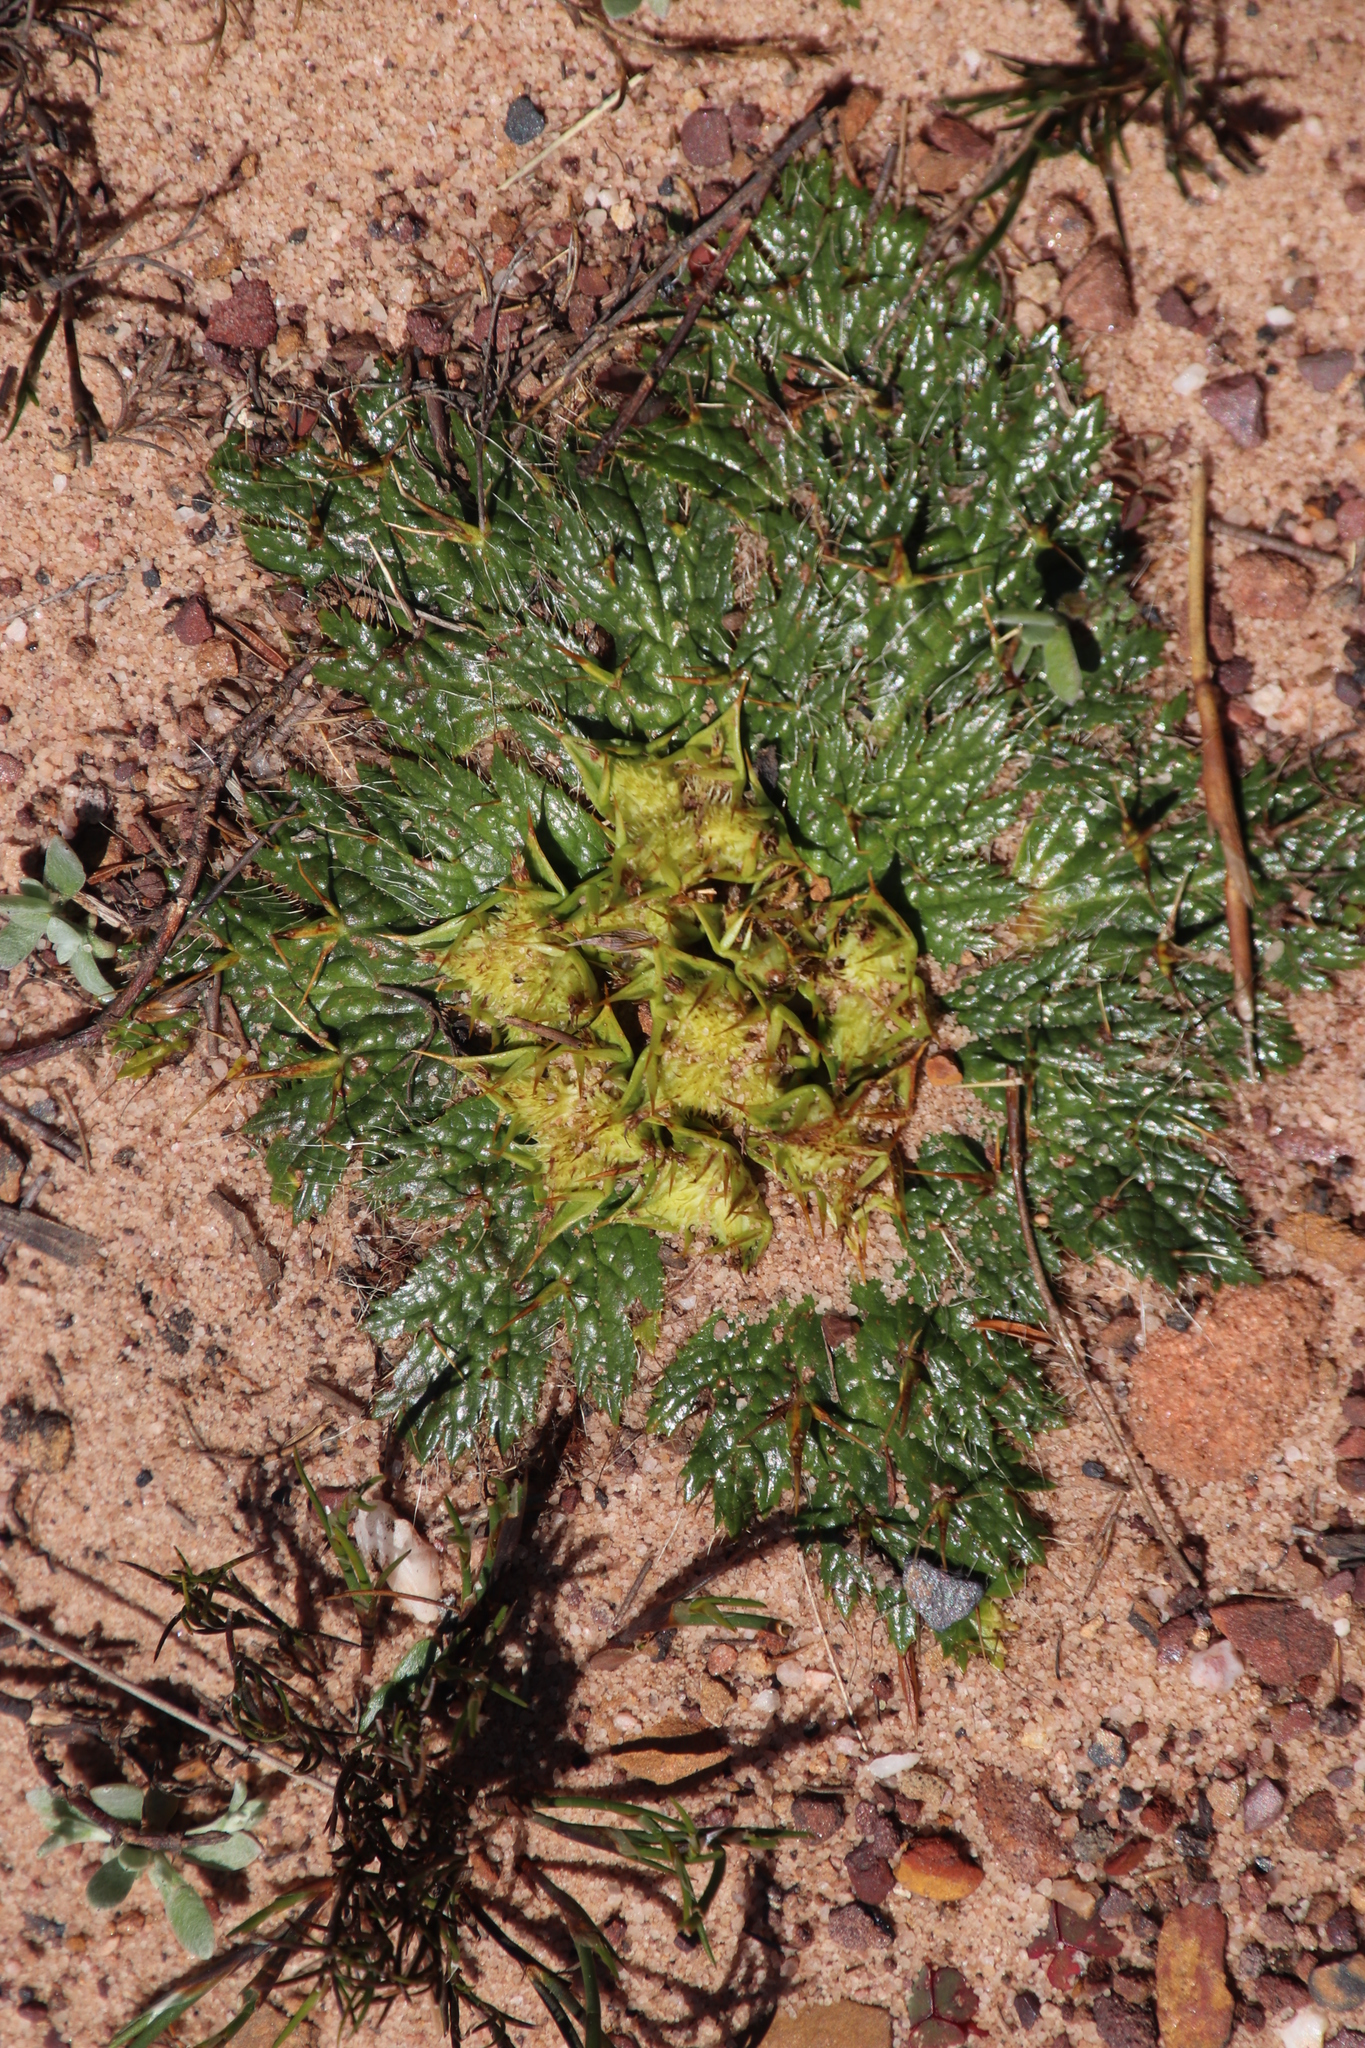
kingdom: Plantae
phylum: Tracheophyta
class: Magnoliopsida
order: Apiales
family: Apiaceae
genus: Arctopus
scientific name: Arctopus echinatus
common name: Platdoring
